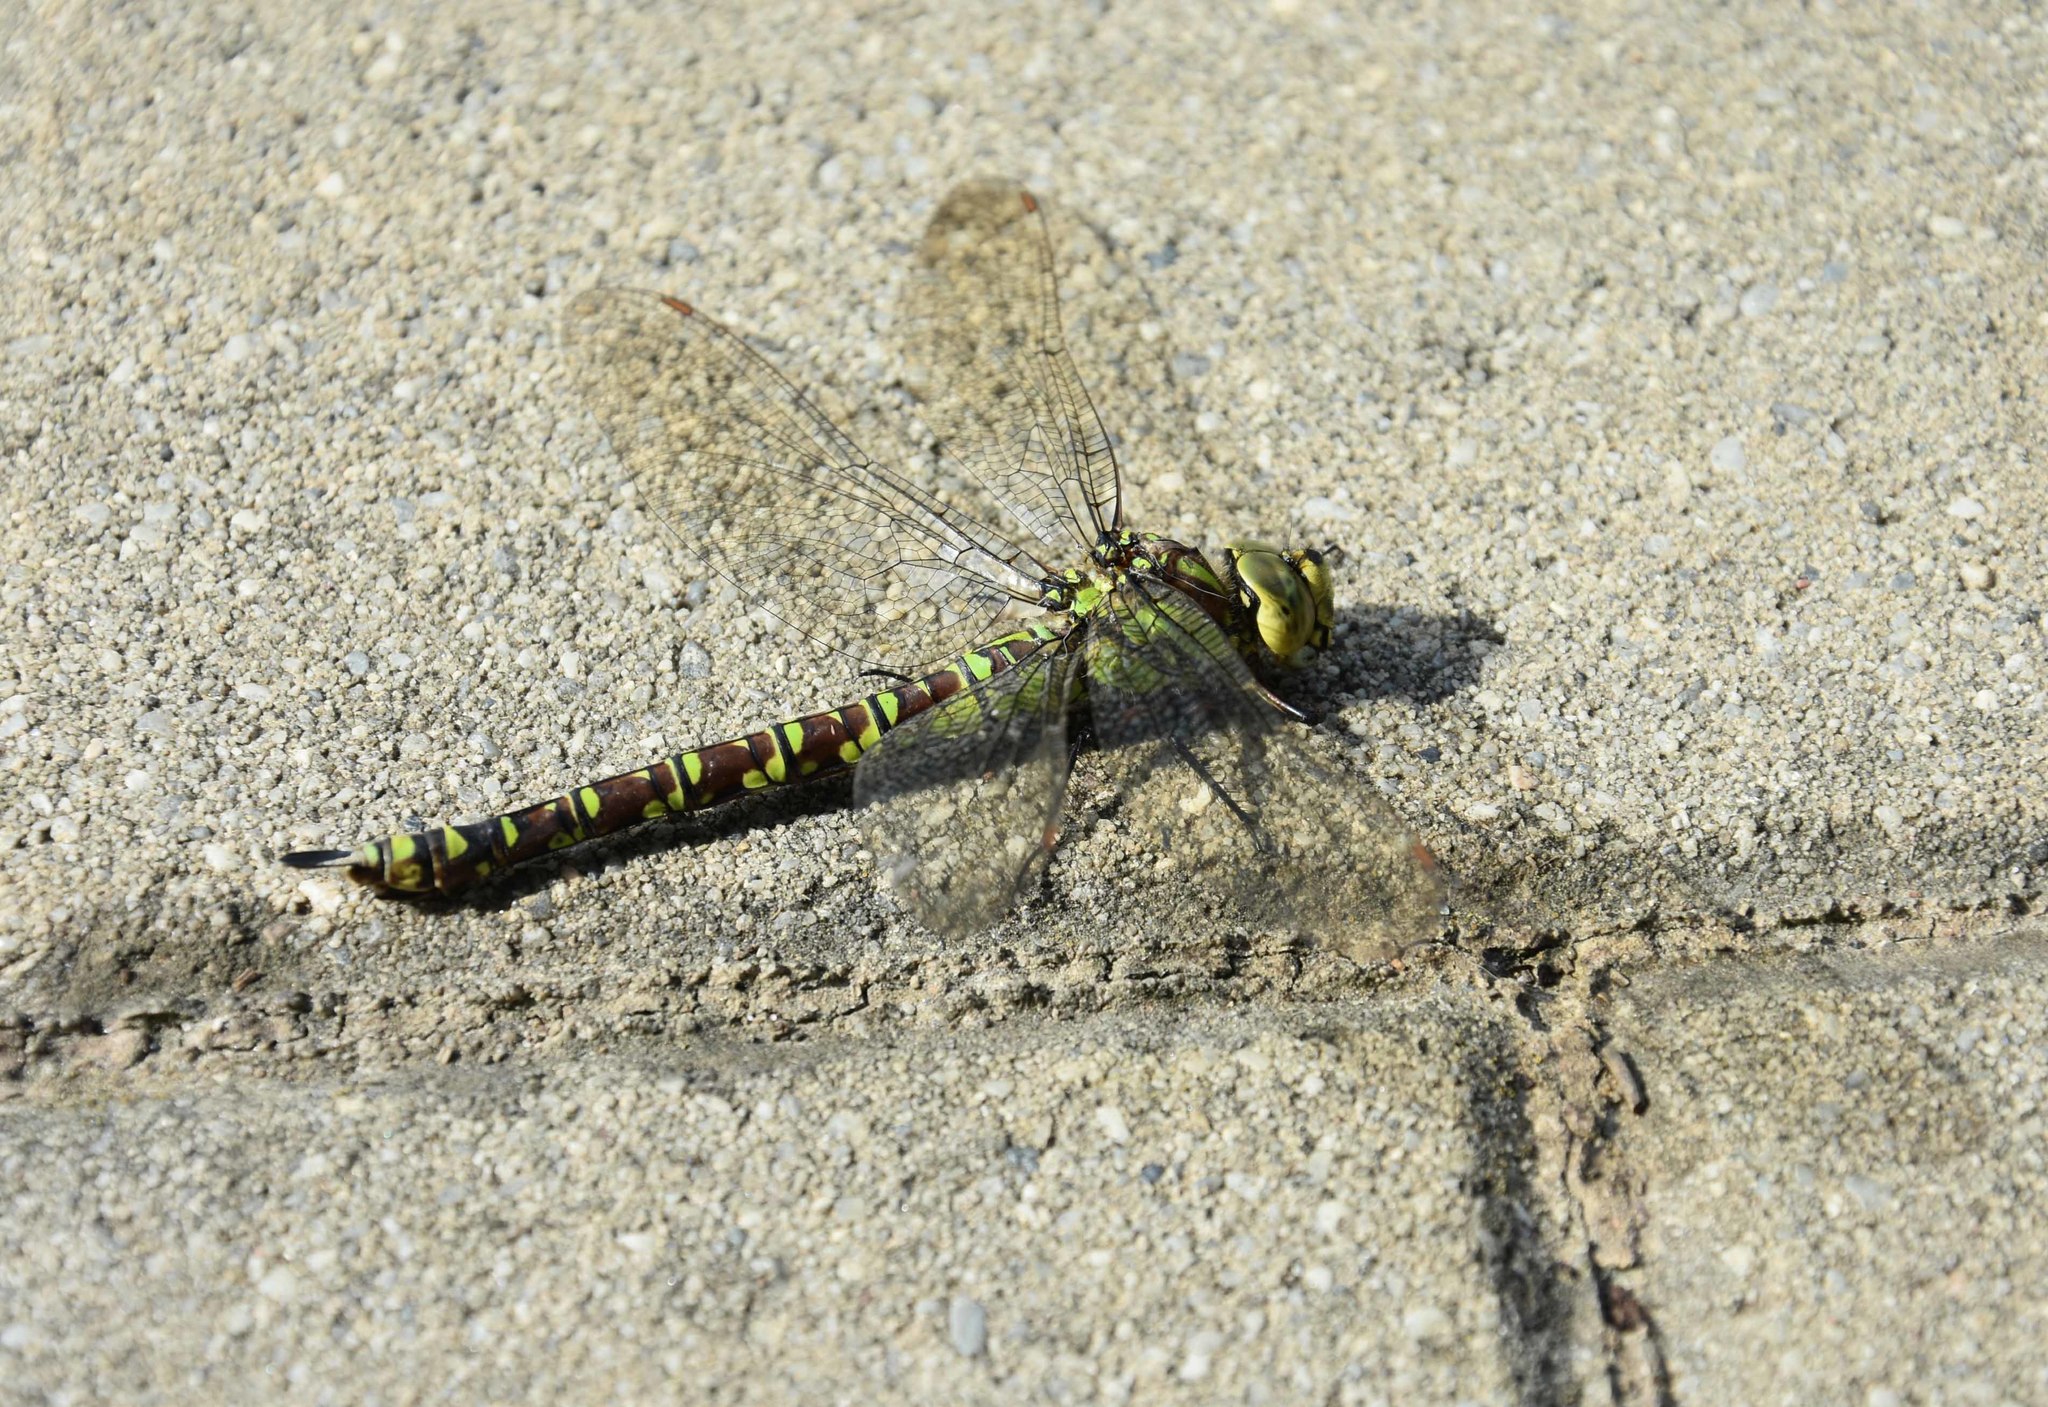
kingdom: Animalia
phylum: Arthropoda
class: Insecta
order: Odonata
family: Aeshnidae
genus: Aeshna
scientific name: Aeshna cyanea
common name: Southern hawker
